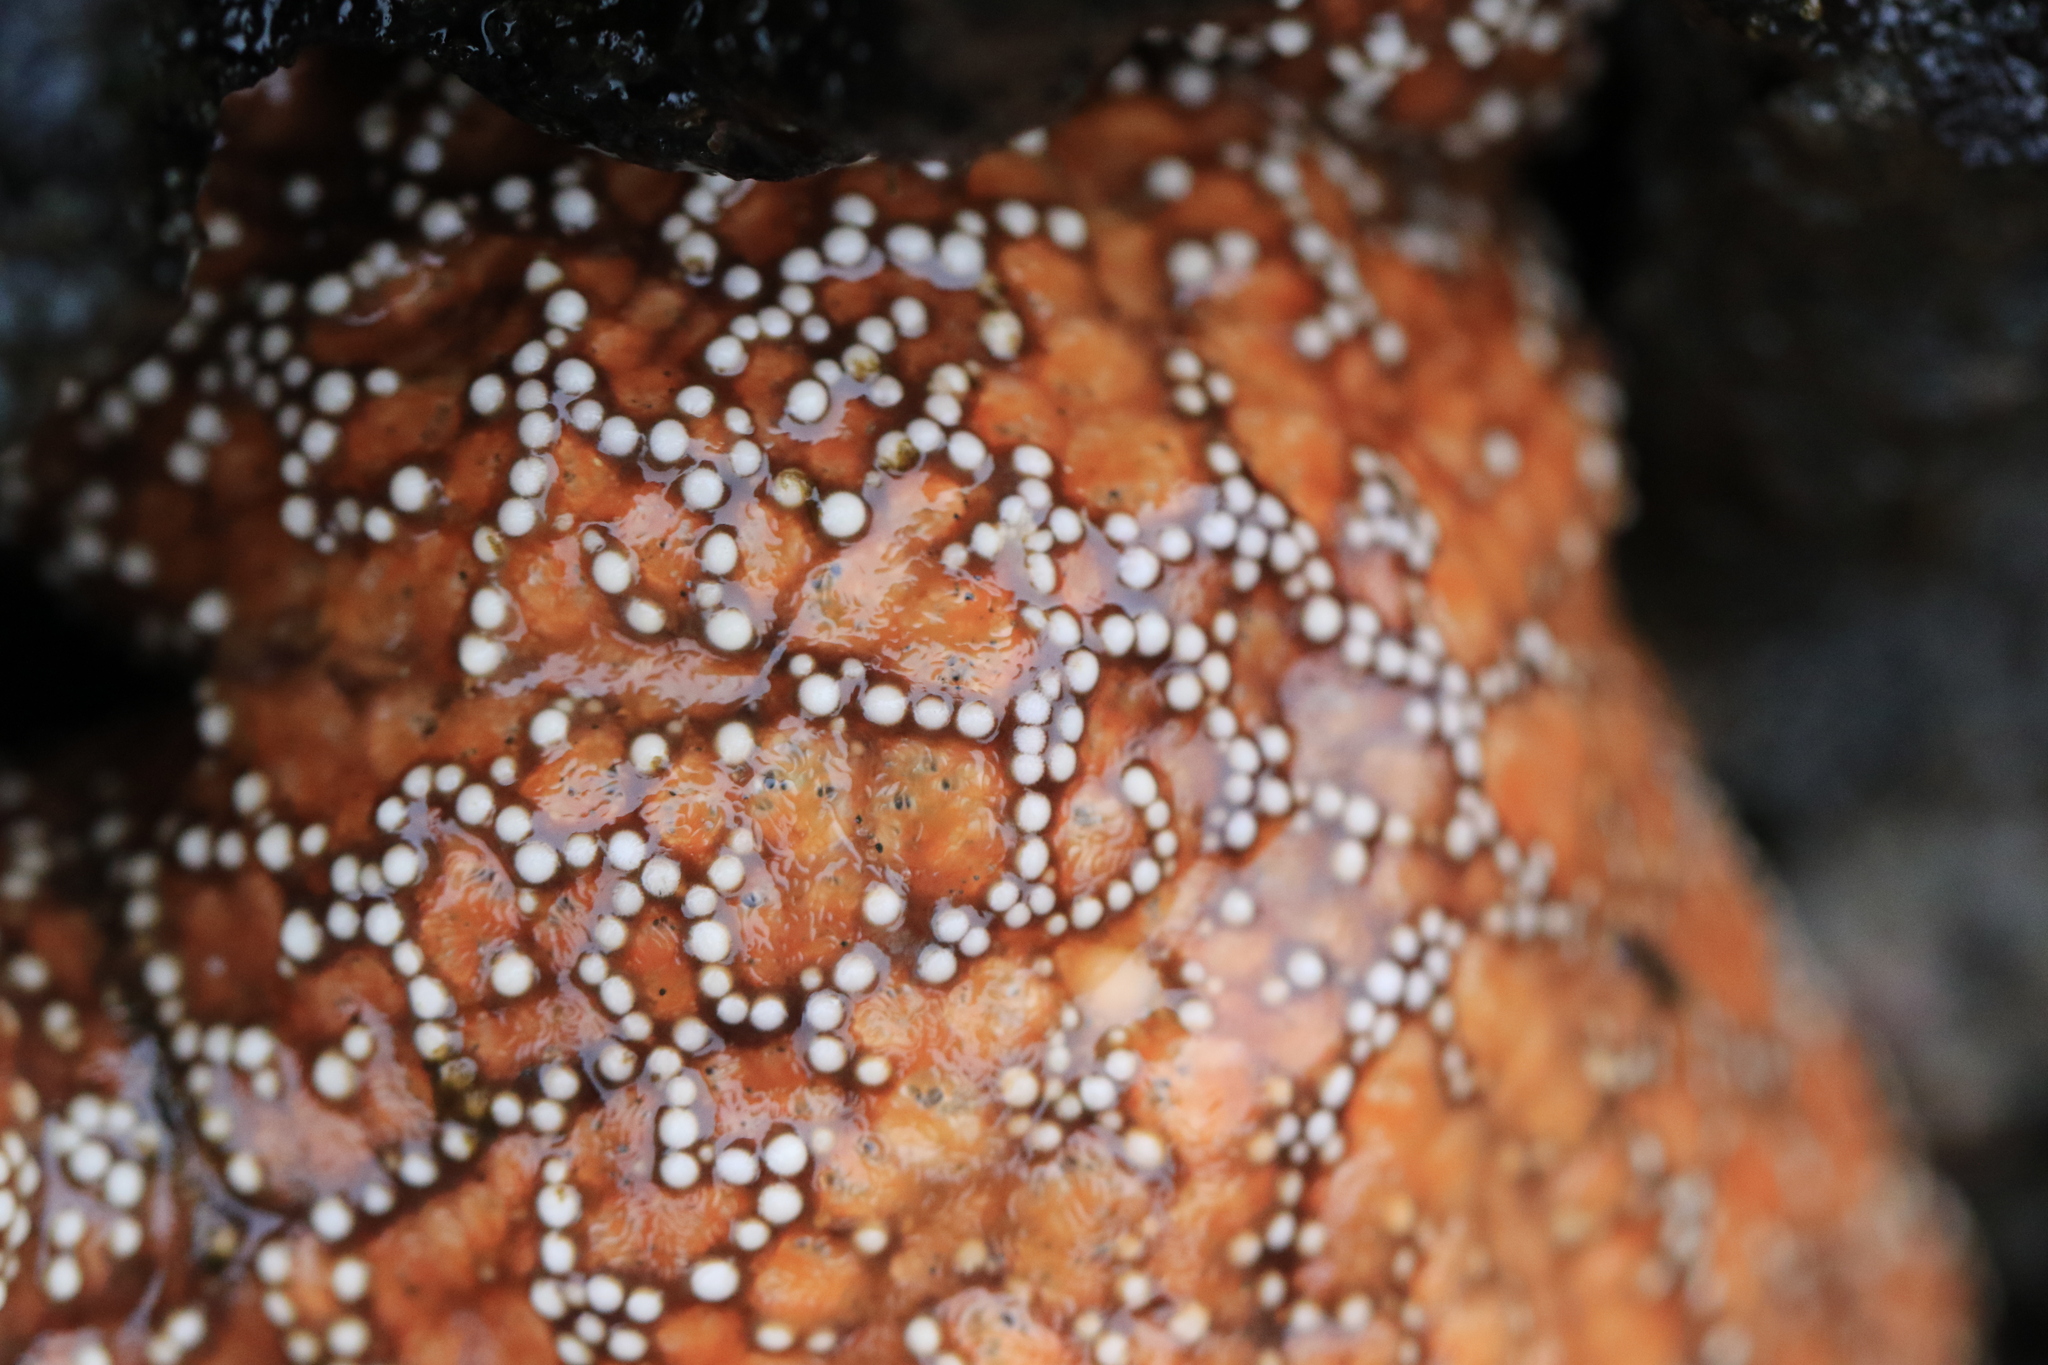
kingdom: Animalia
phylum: Echinodermata
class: Asteroidea
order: Forcipulatida
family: Asteriidae
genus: Pisaster
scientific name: Pisaster ochraceus
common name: Ochre stars
